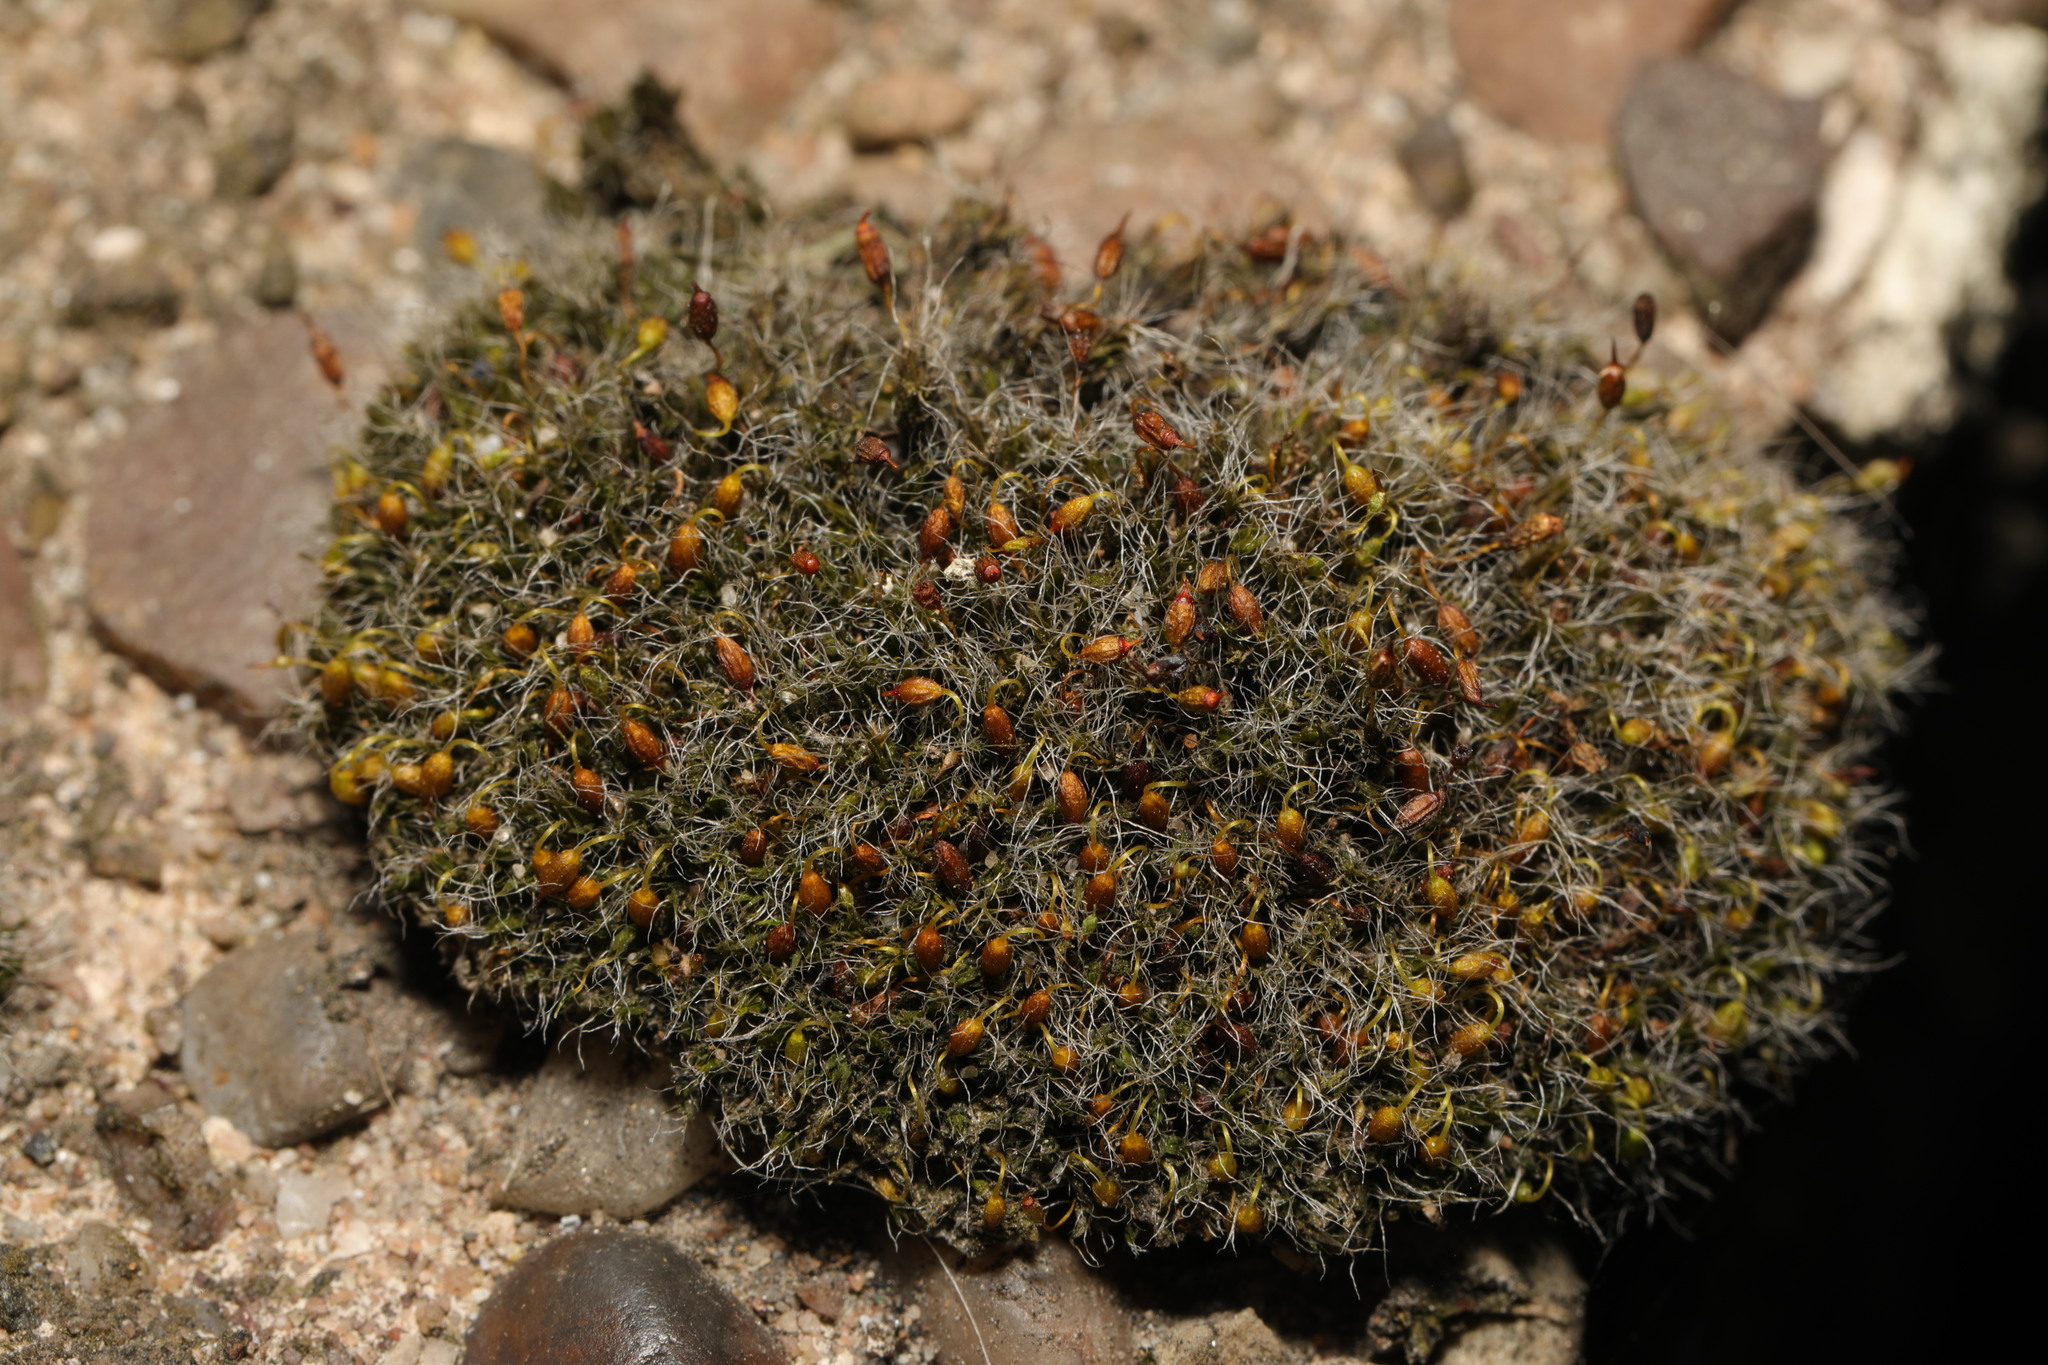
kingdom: Plantae
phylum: Bryophyta
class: Bryopsida
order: Grimmiales
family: Grimmiaceae
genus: Grimmia
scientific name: Grimmia pulvinata
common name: Grey-cushioned grimmia
